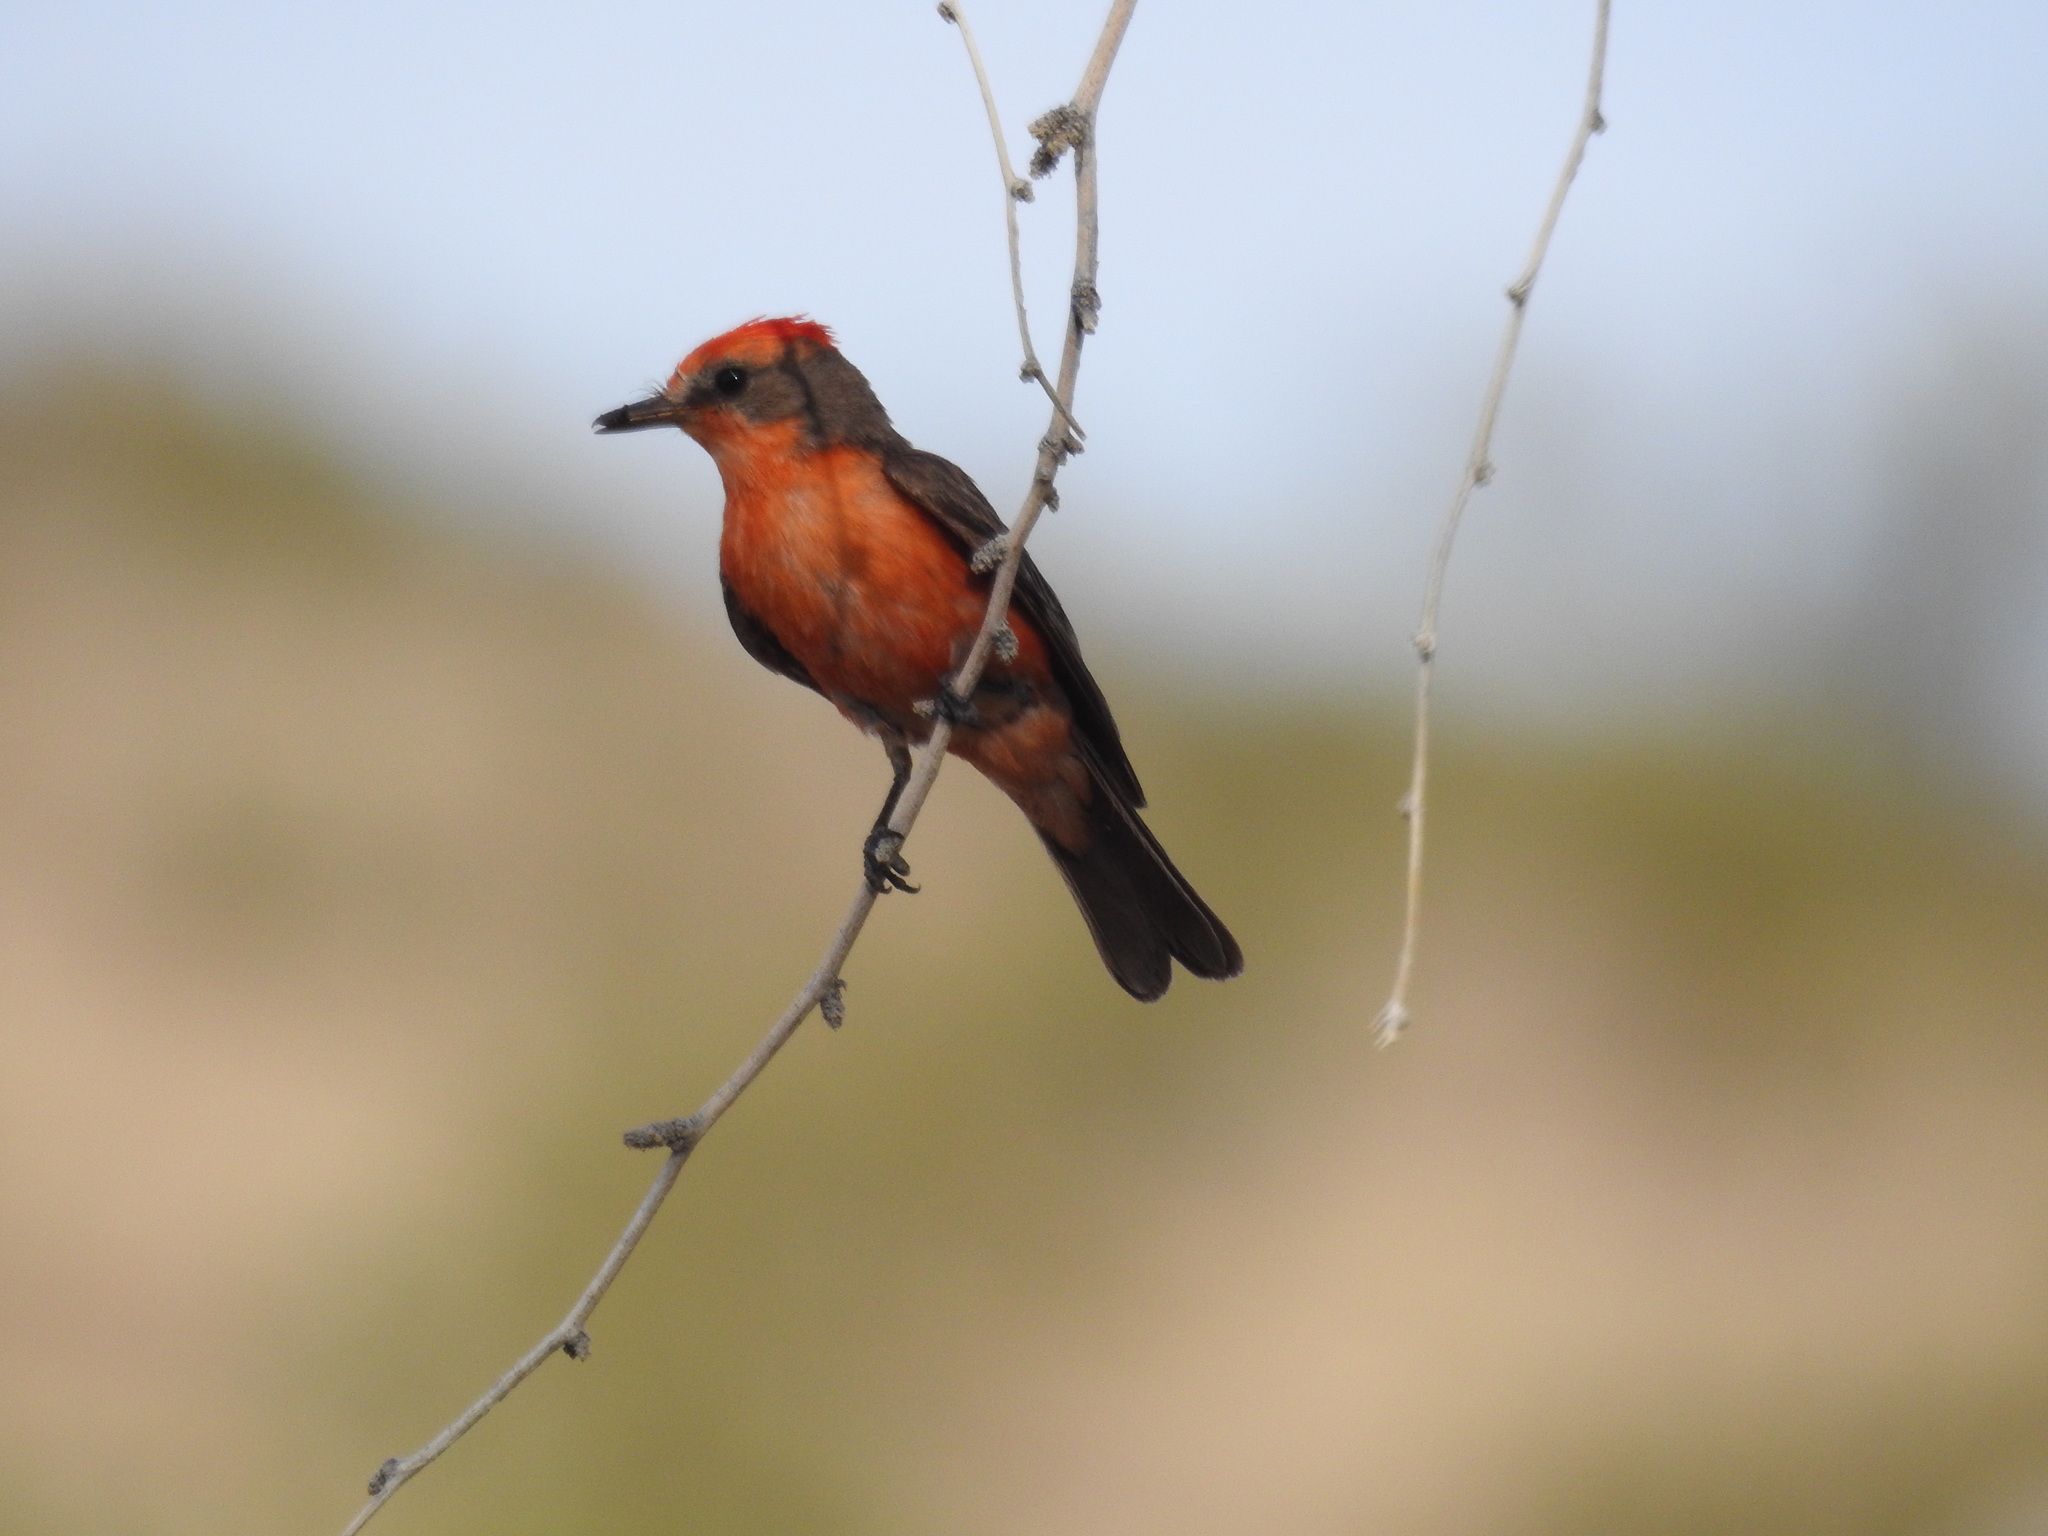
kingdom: Animalia
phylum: Chordata
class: Aves
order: Passeriformes
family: Tyrannidae
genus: Pyrocephalus
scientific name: Pyrocephalus rubinus
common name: Vermilion flycatcher
